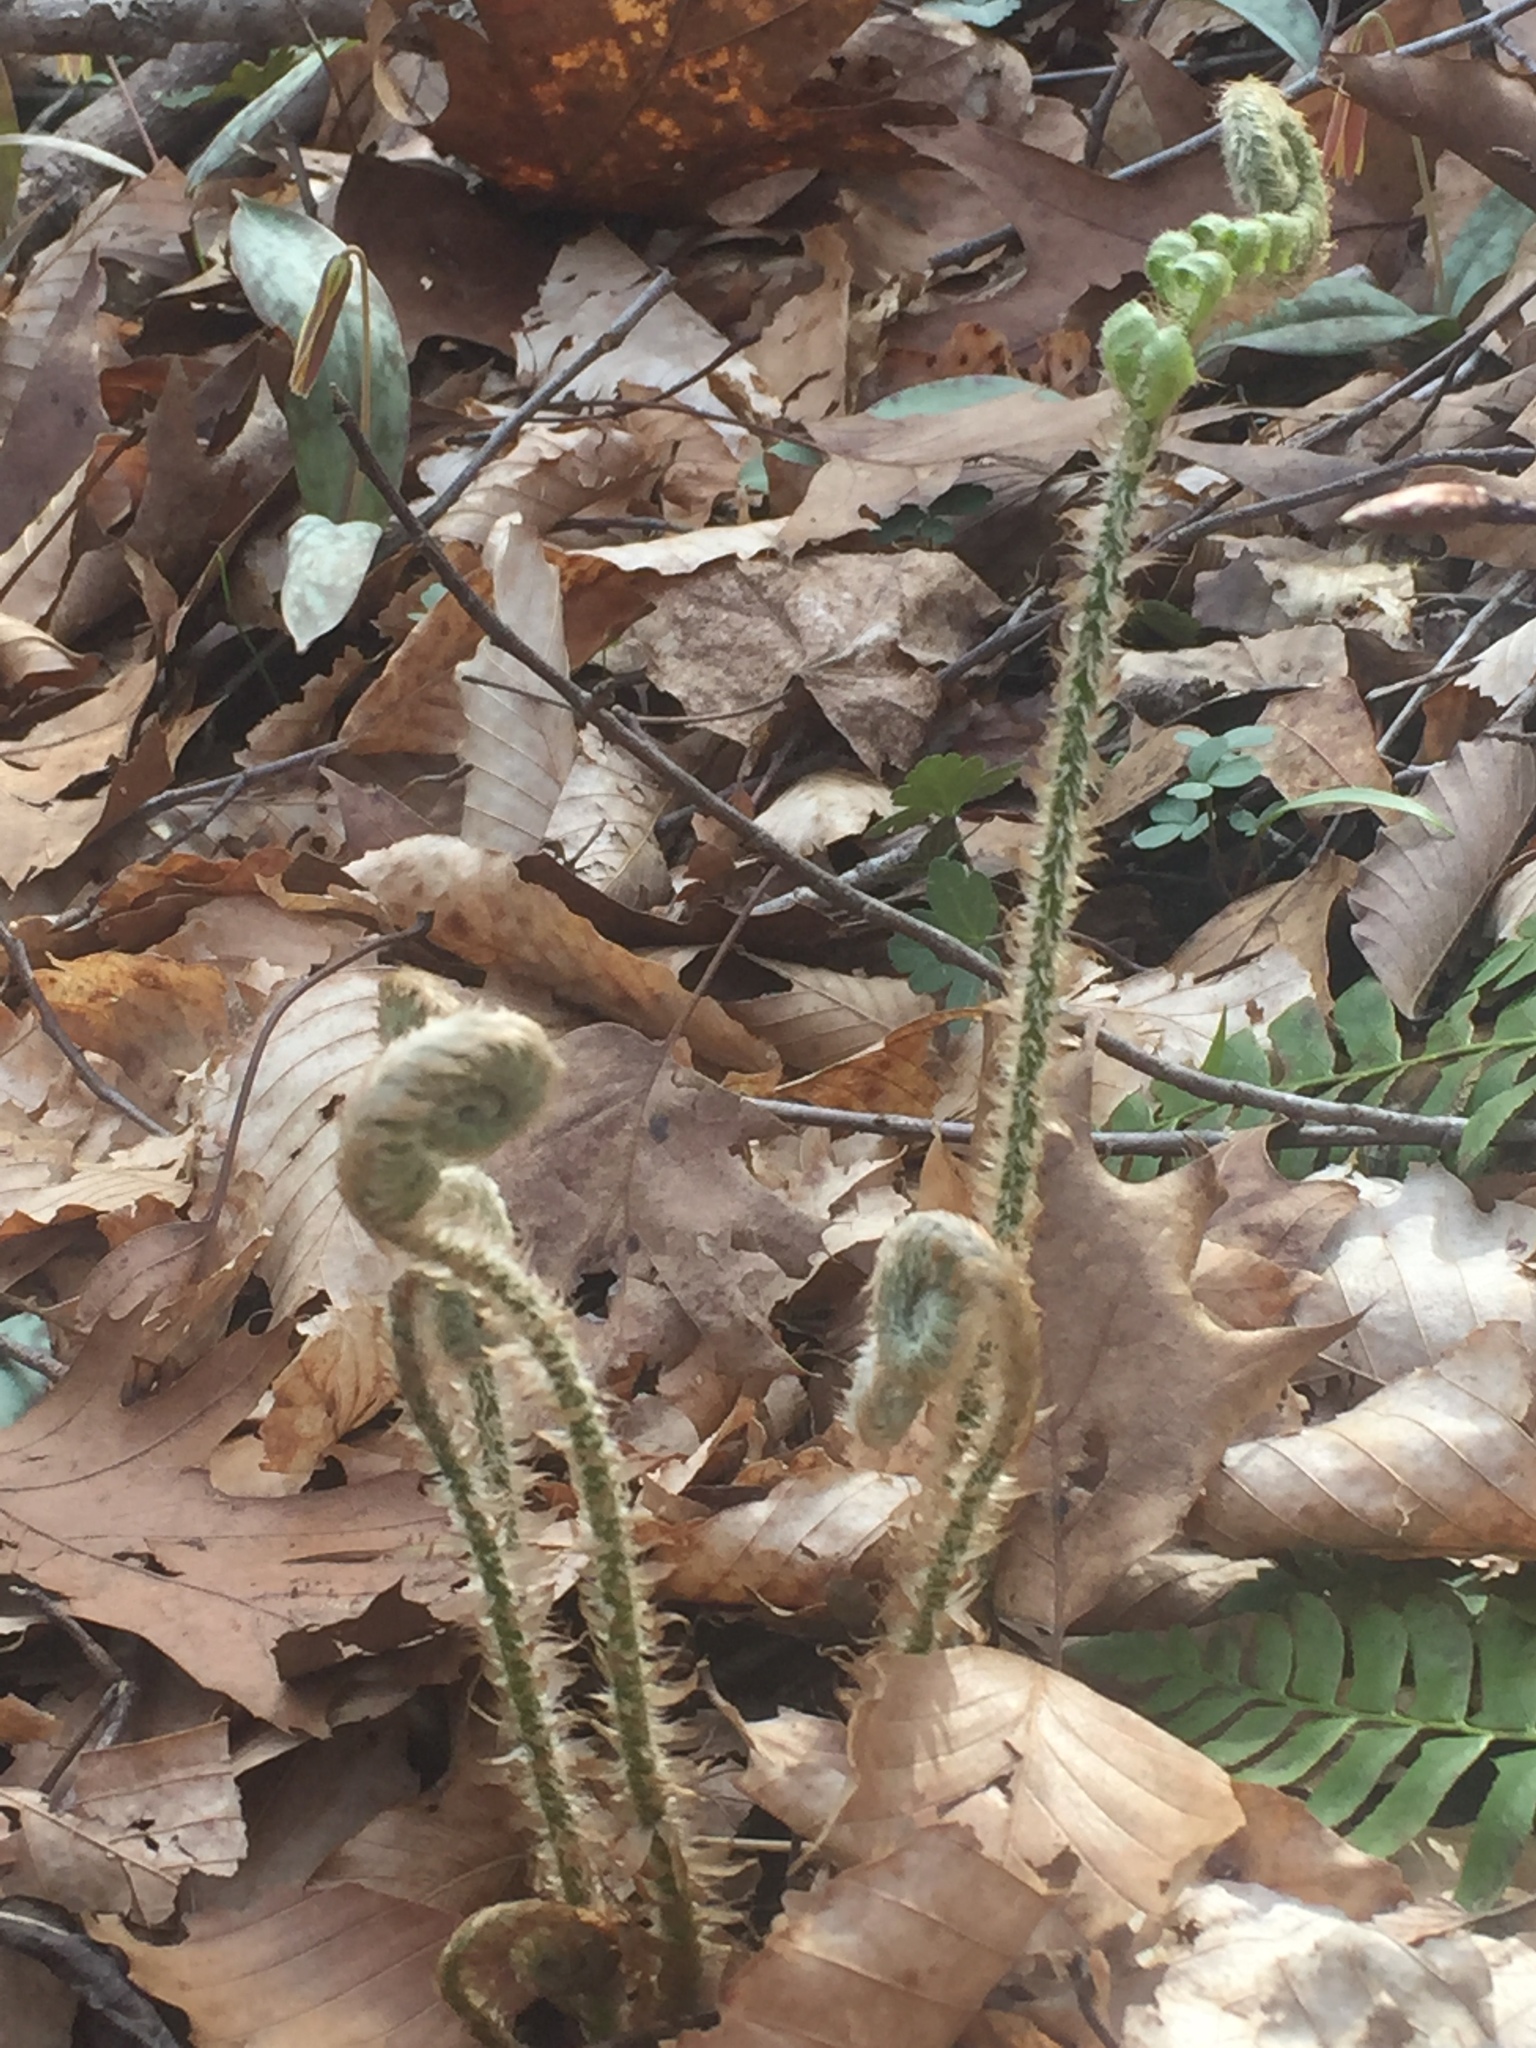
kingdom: Plantae
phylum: Tracheophyta
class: Polypodiopsida
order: Polypodiales
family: Dryopteridaceae
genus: Polystichum
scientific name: Polystichum acrostichoides
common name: Christmas fern
